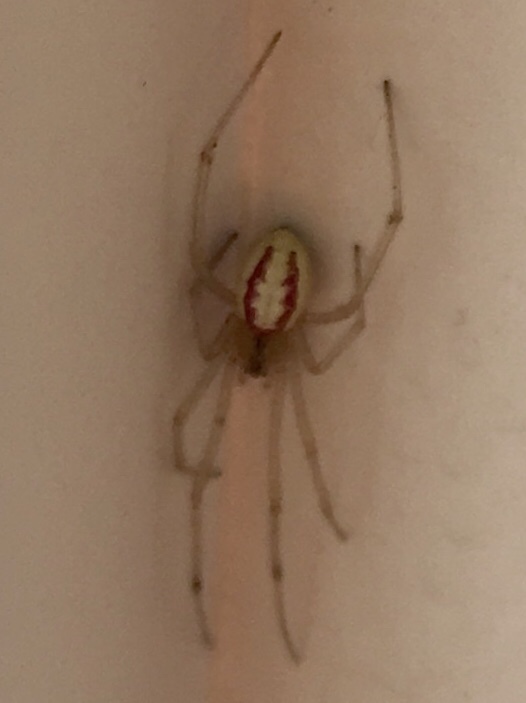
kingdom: Animalia
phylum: Arthropoda
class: Arachnida
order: Araneae
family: Theridiidae
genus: Enoplognatha
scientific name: Enoplognatha ovata
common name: Common candy-striped spider
